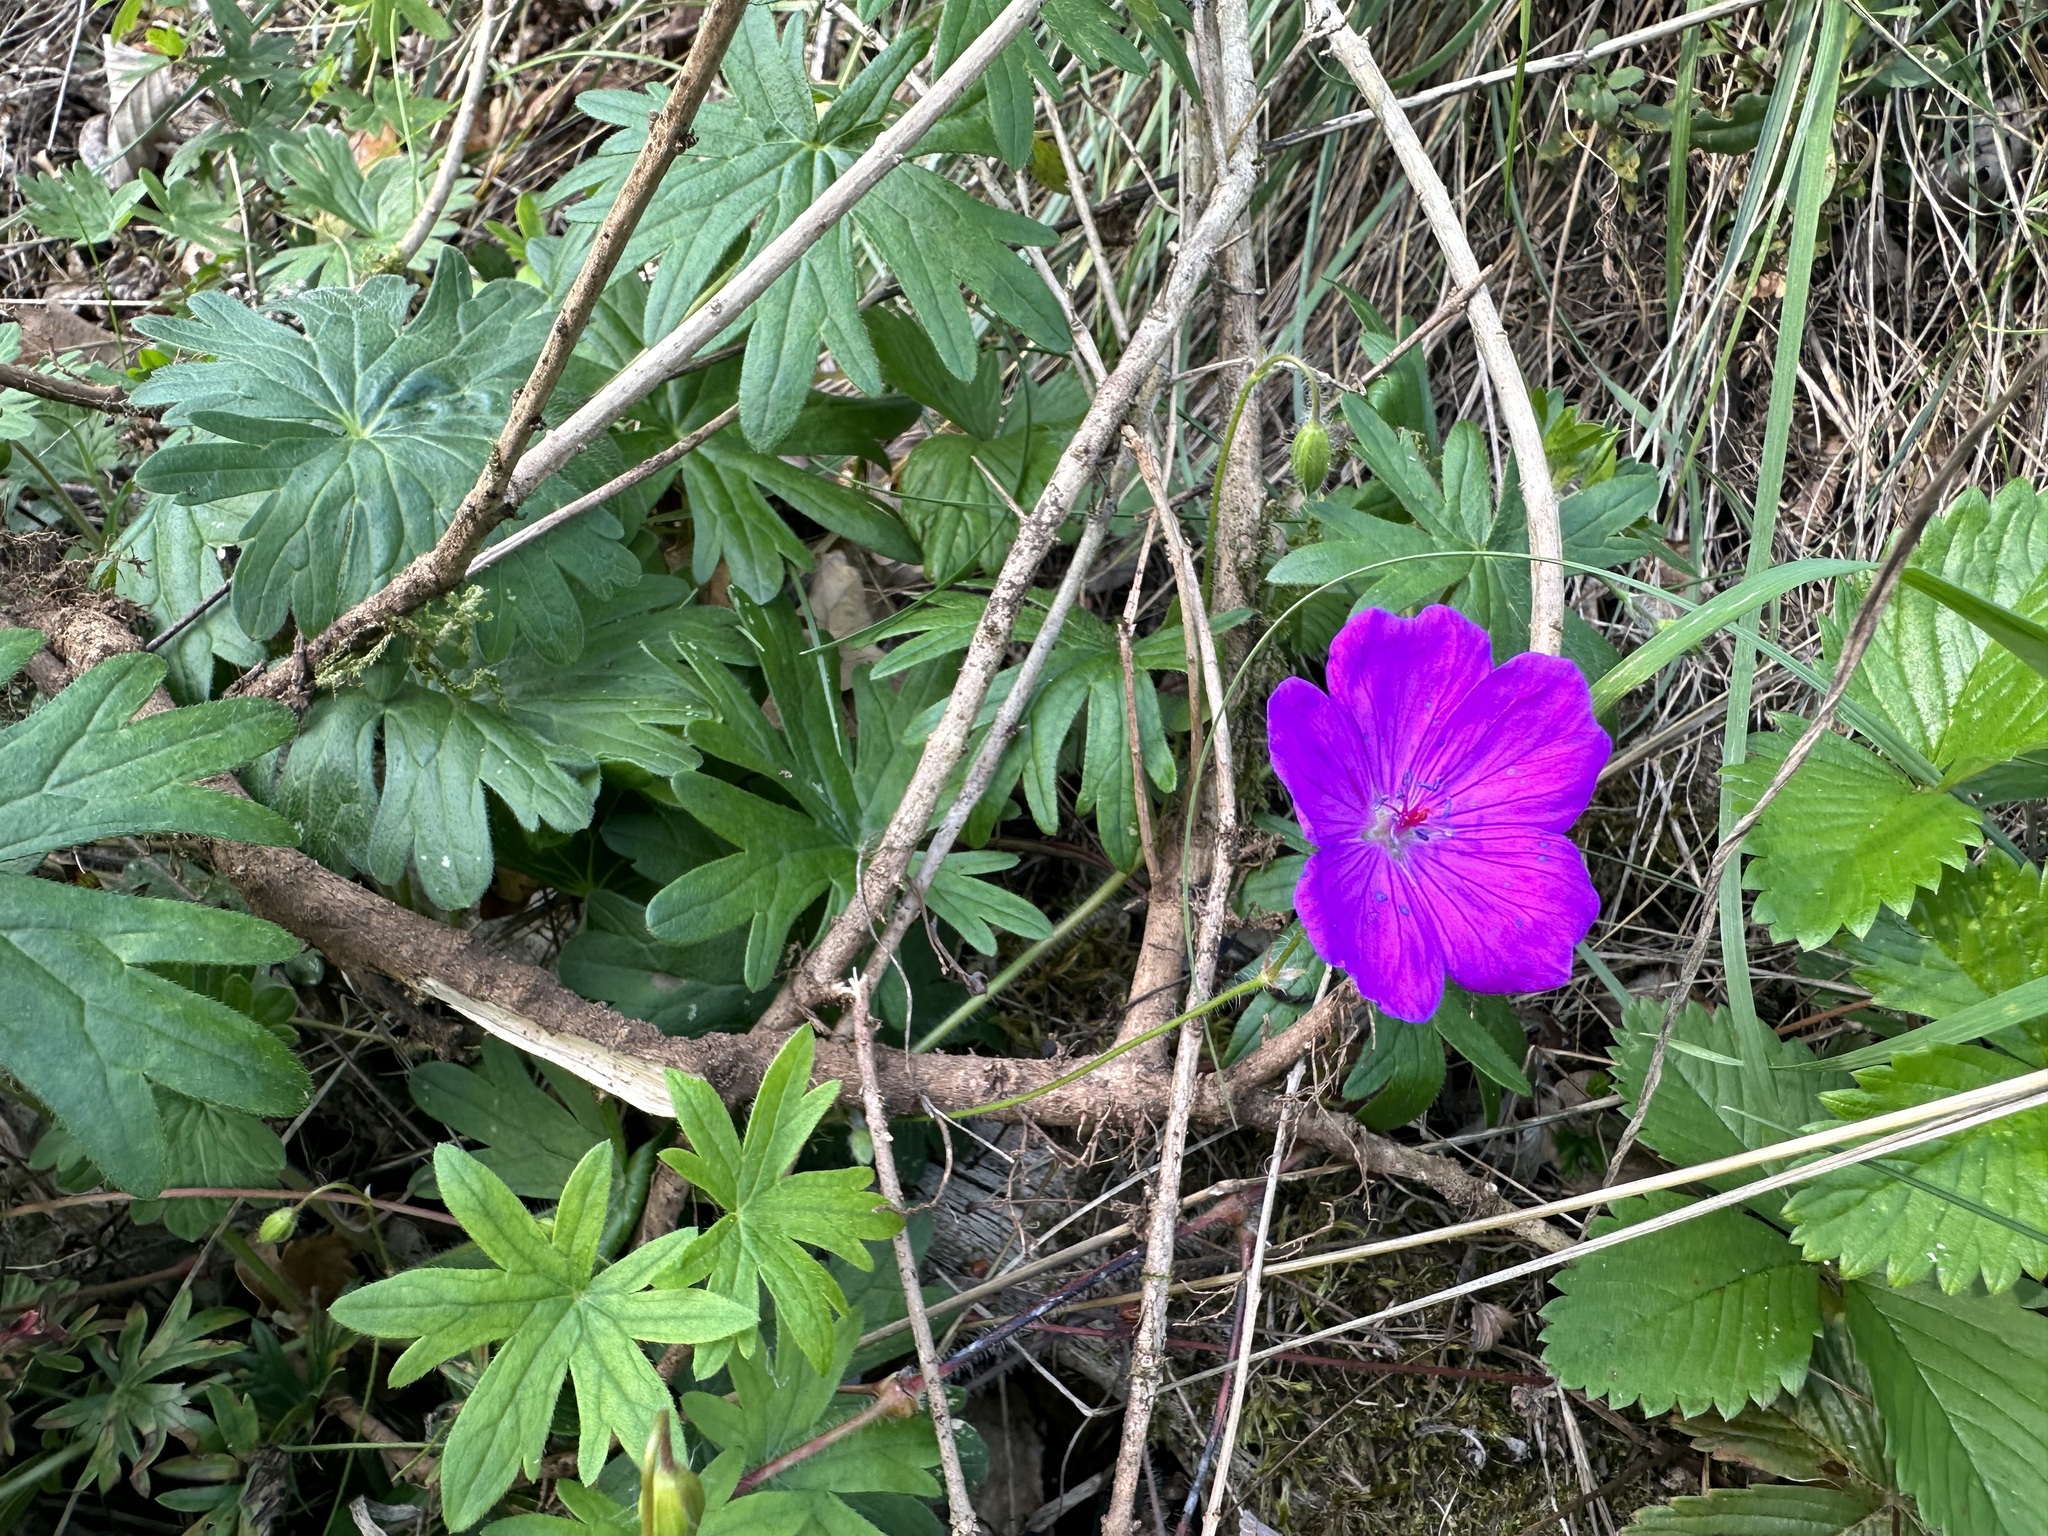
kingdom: Plantae
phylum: Tracheophyta
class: Magnoliopsida
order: Geraniales
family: Geraniaceae
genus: Geranium
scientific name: Geranium sanguineum
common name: Bloody crane's-bill
